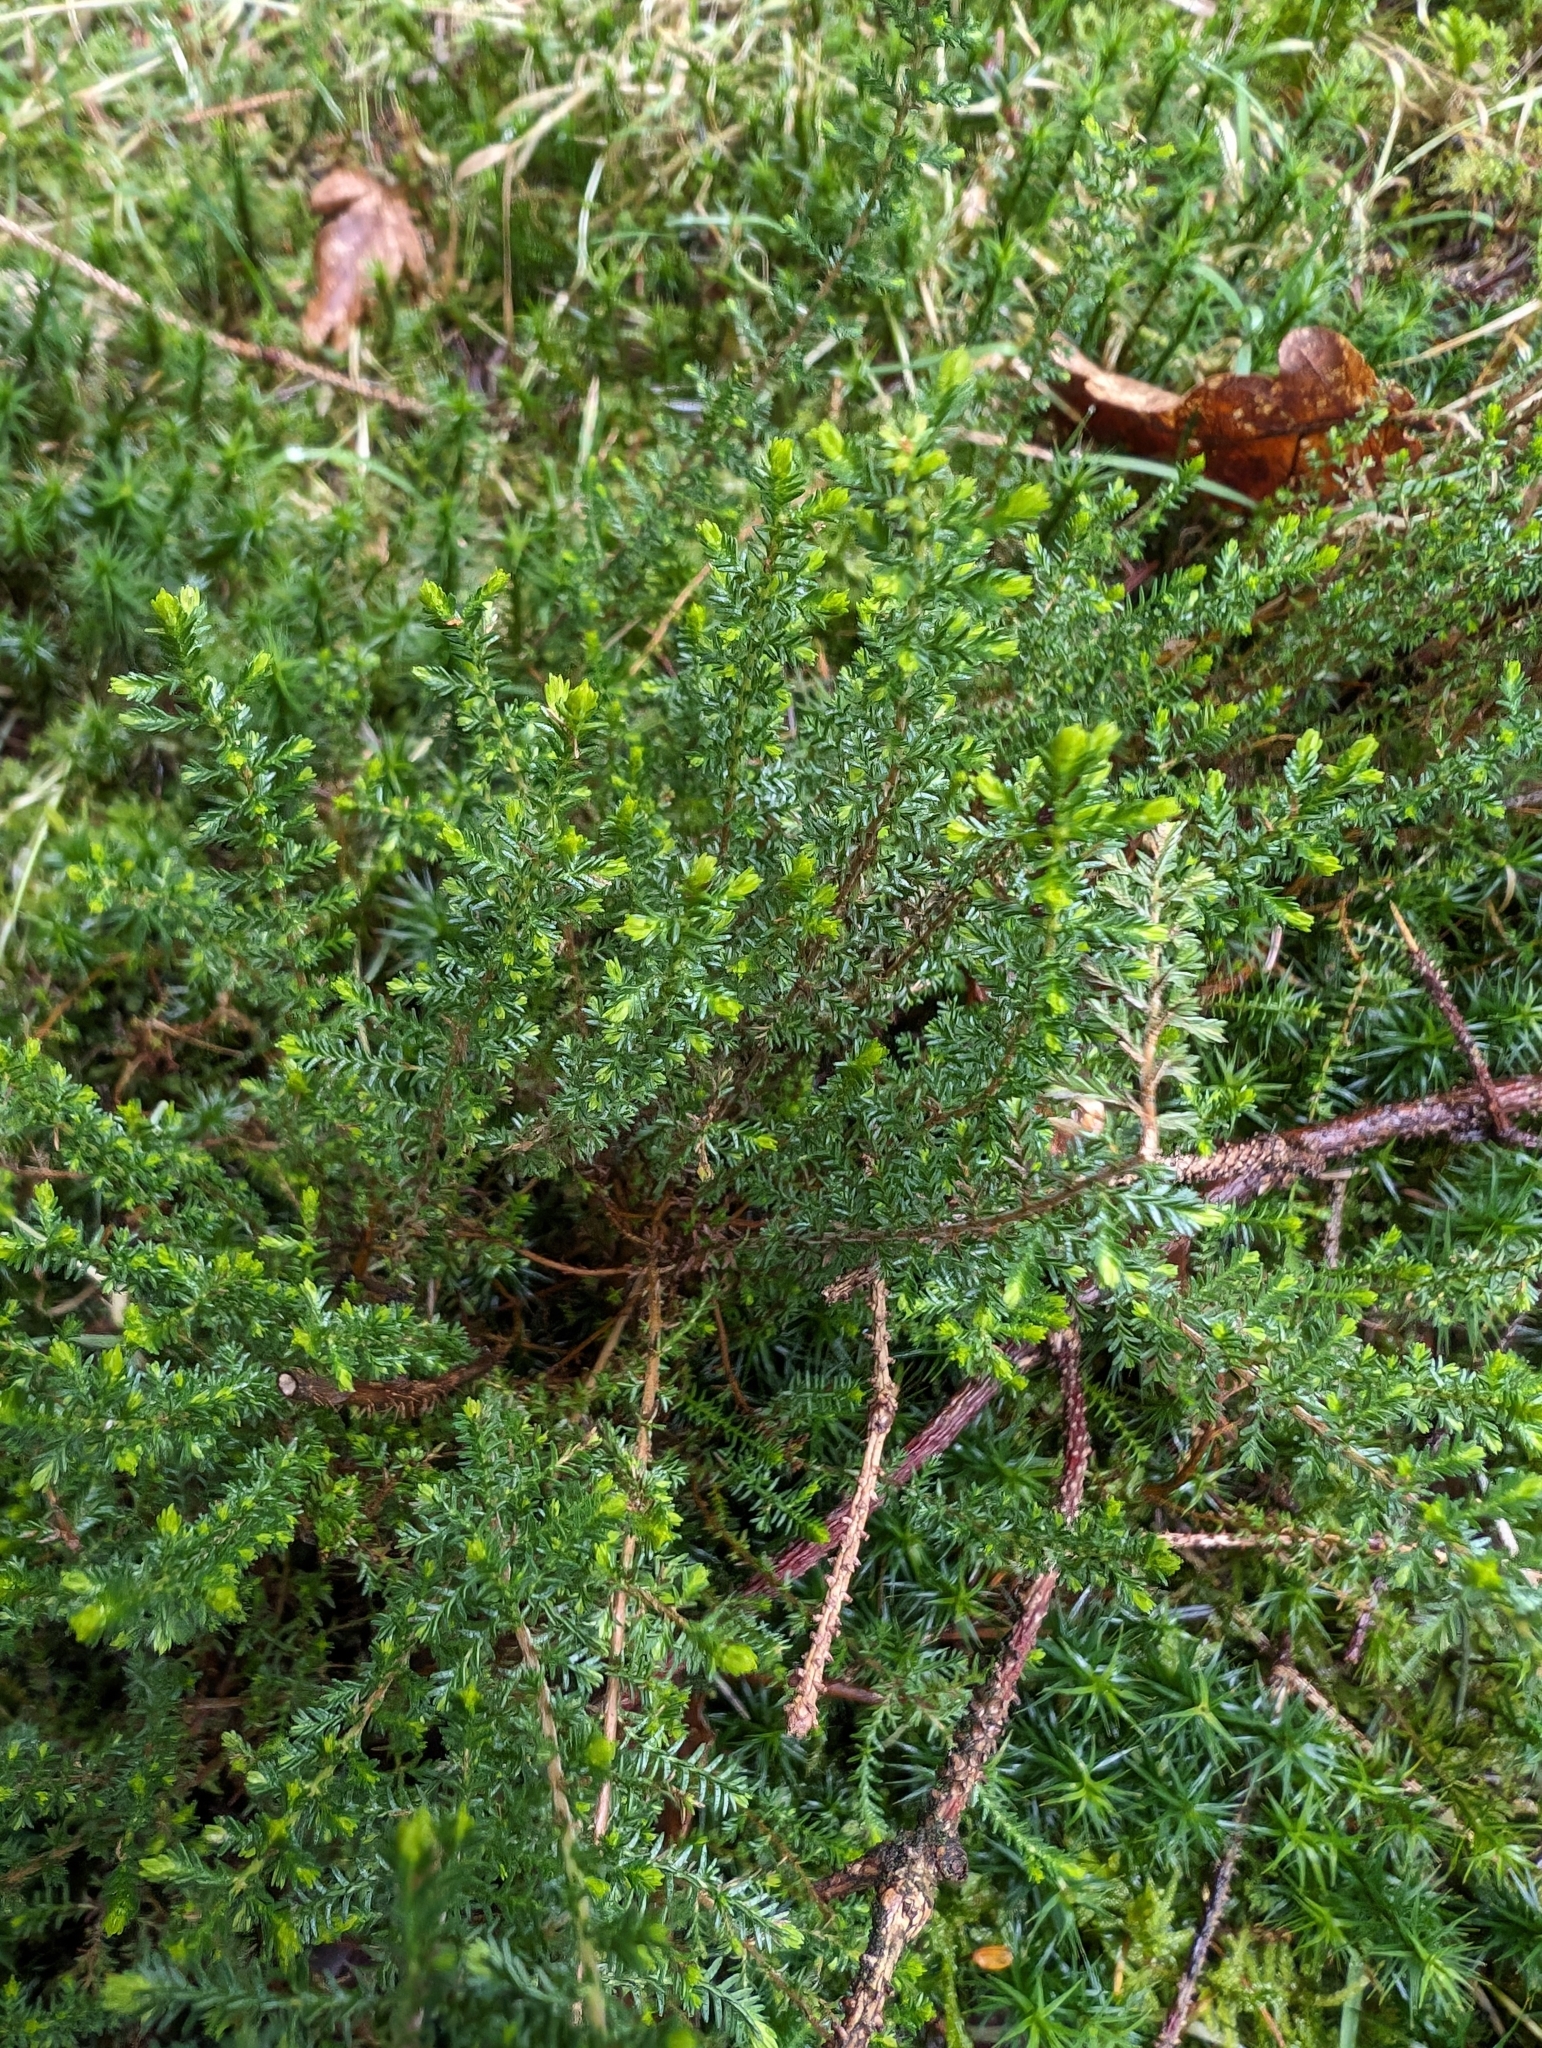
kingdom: Plantae
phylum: Tracheophyta
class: Magnoliopsida
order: Ericales
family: Ericaceae
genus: Calluna
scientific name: Calluna vulgaris
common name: Heather
